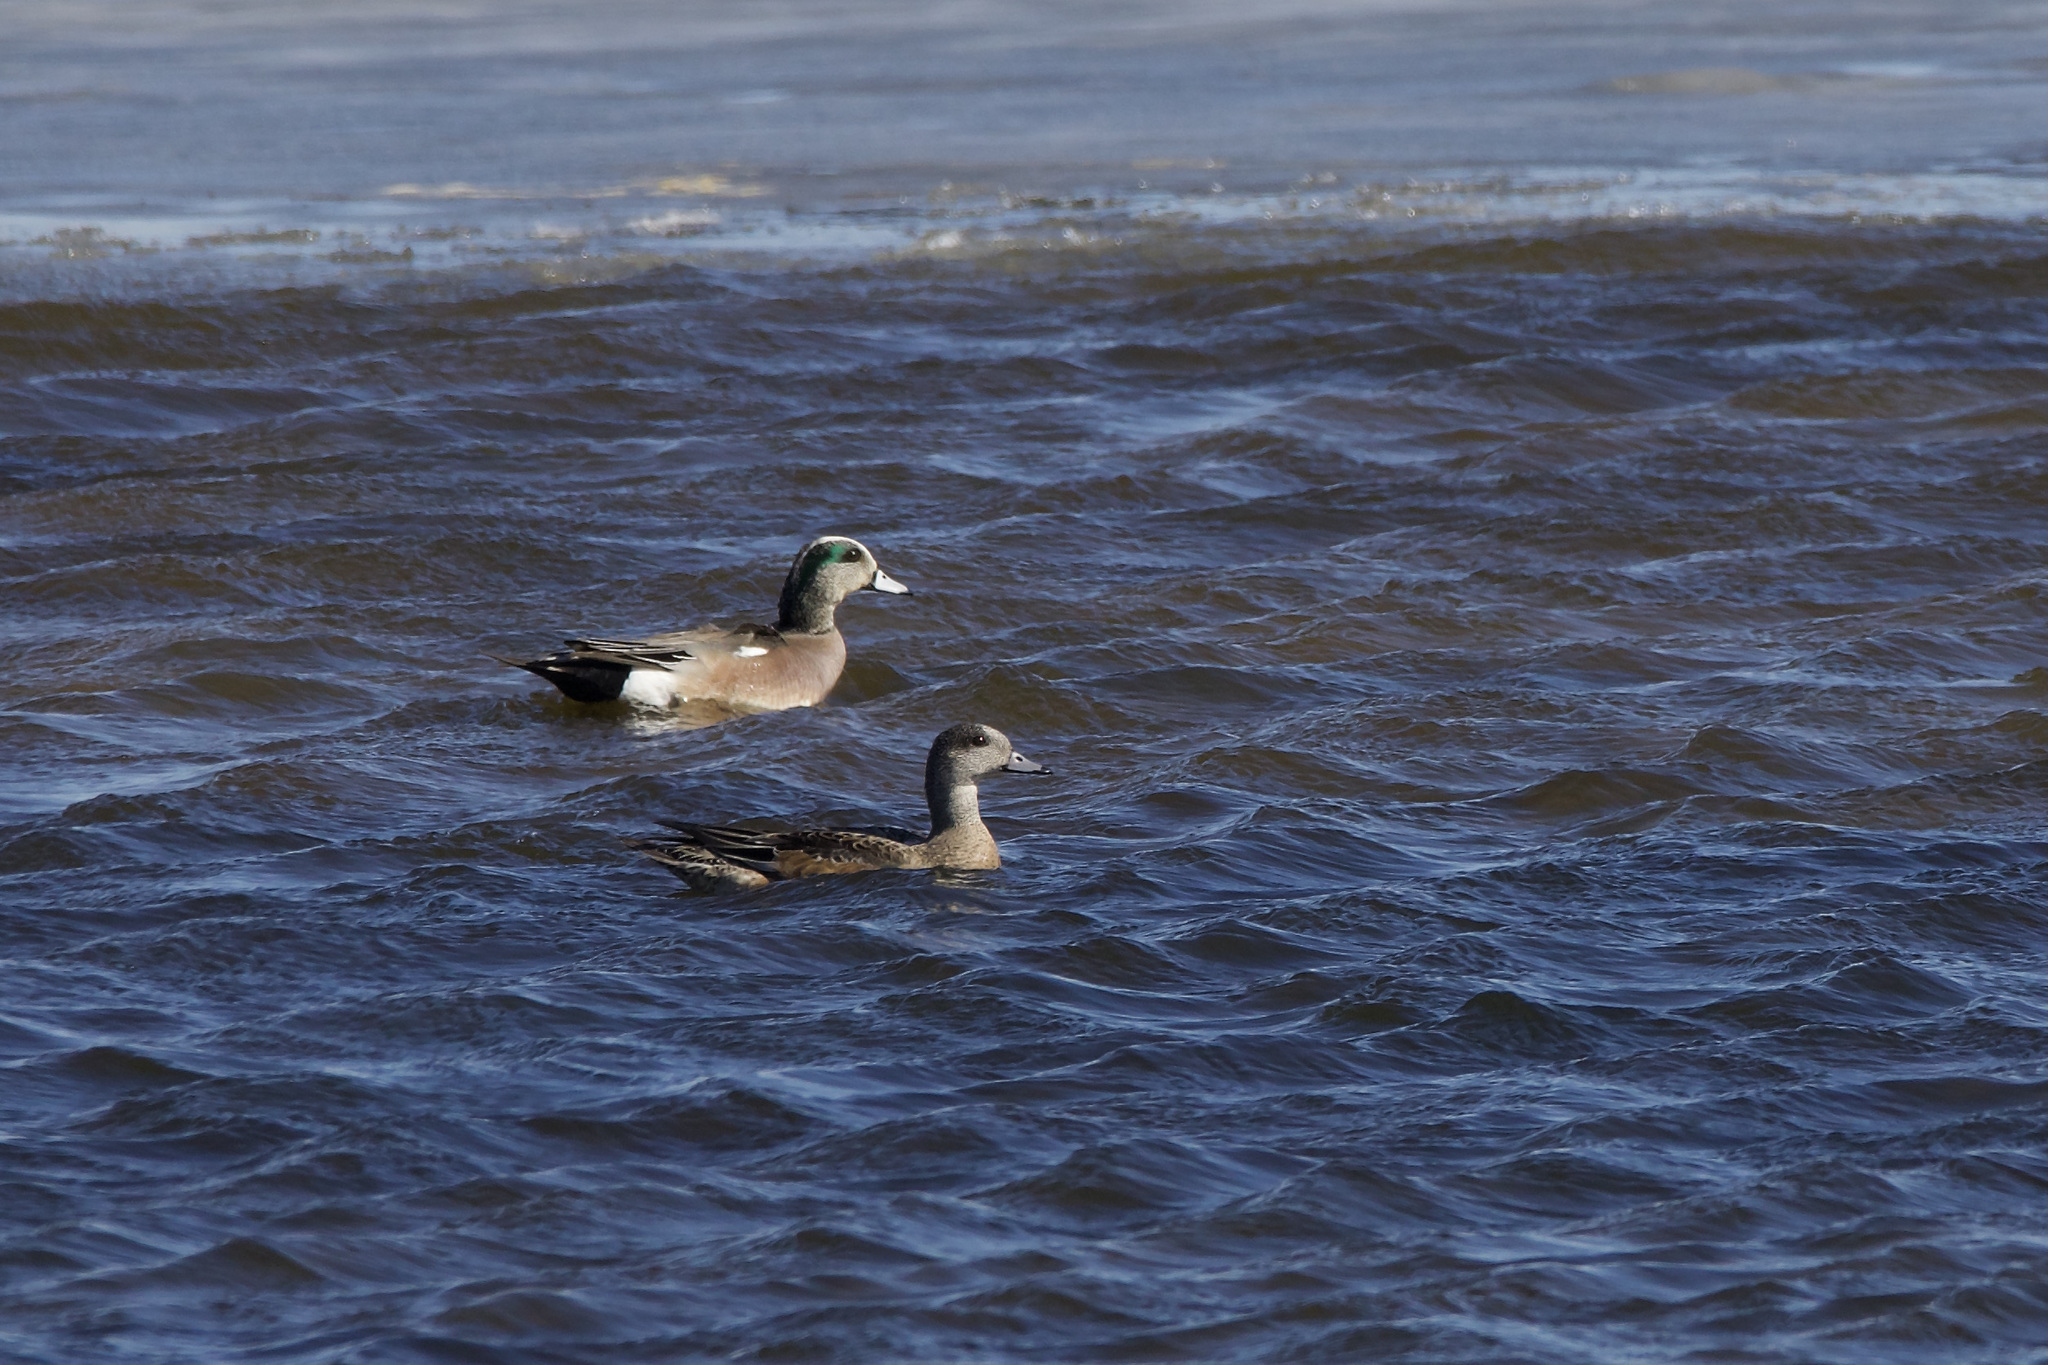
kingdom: Animalia
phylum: Chordata
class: Aves
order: Anseriformes
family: Anatidae
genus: Mareca
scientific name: Mareca americana
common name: American wigeon
